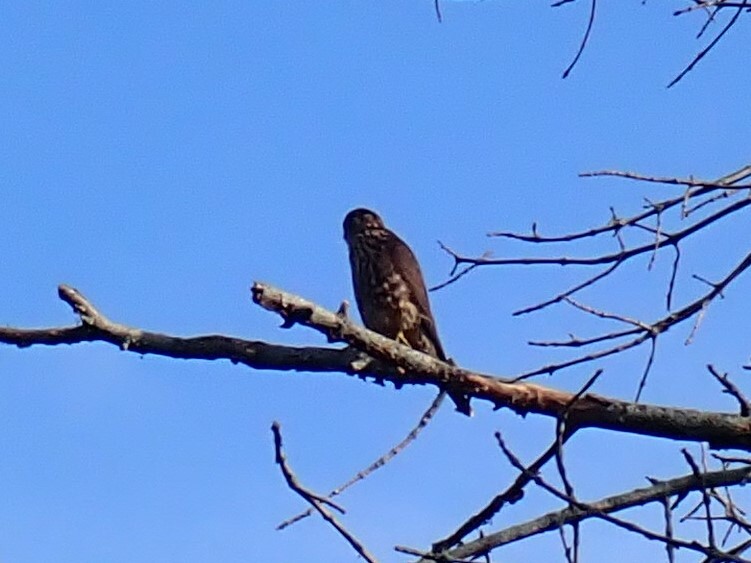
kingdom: Animalia
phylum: Chordata
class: Aves
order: Falconiformes
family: Falconidae
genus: Falco
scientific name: Falco columbarius
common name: Merlin
